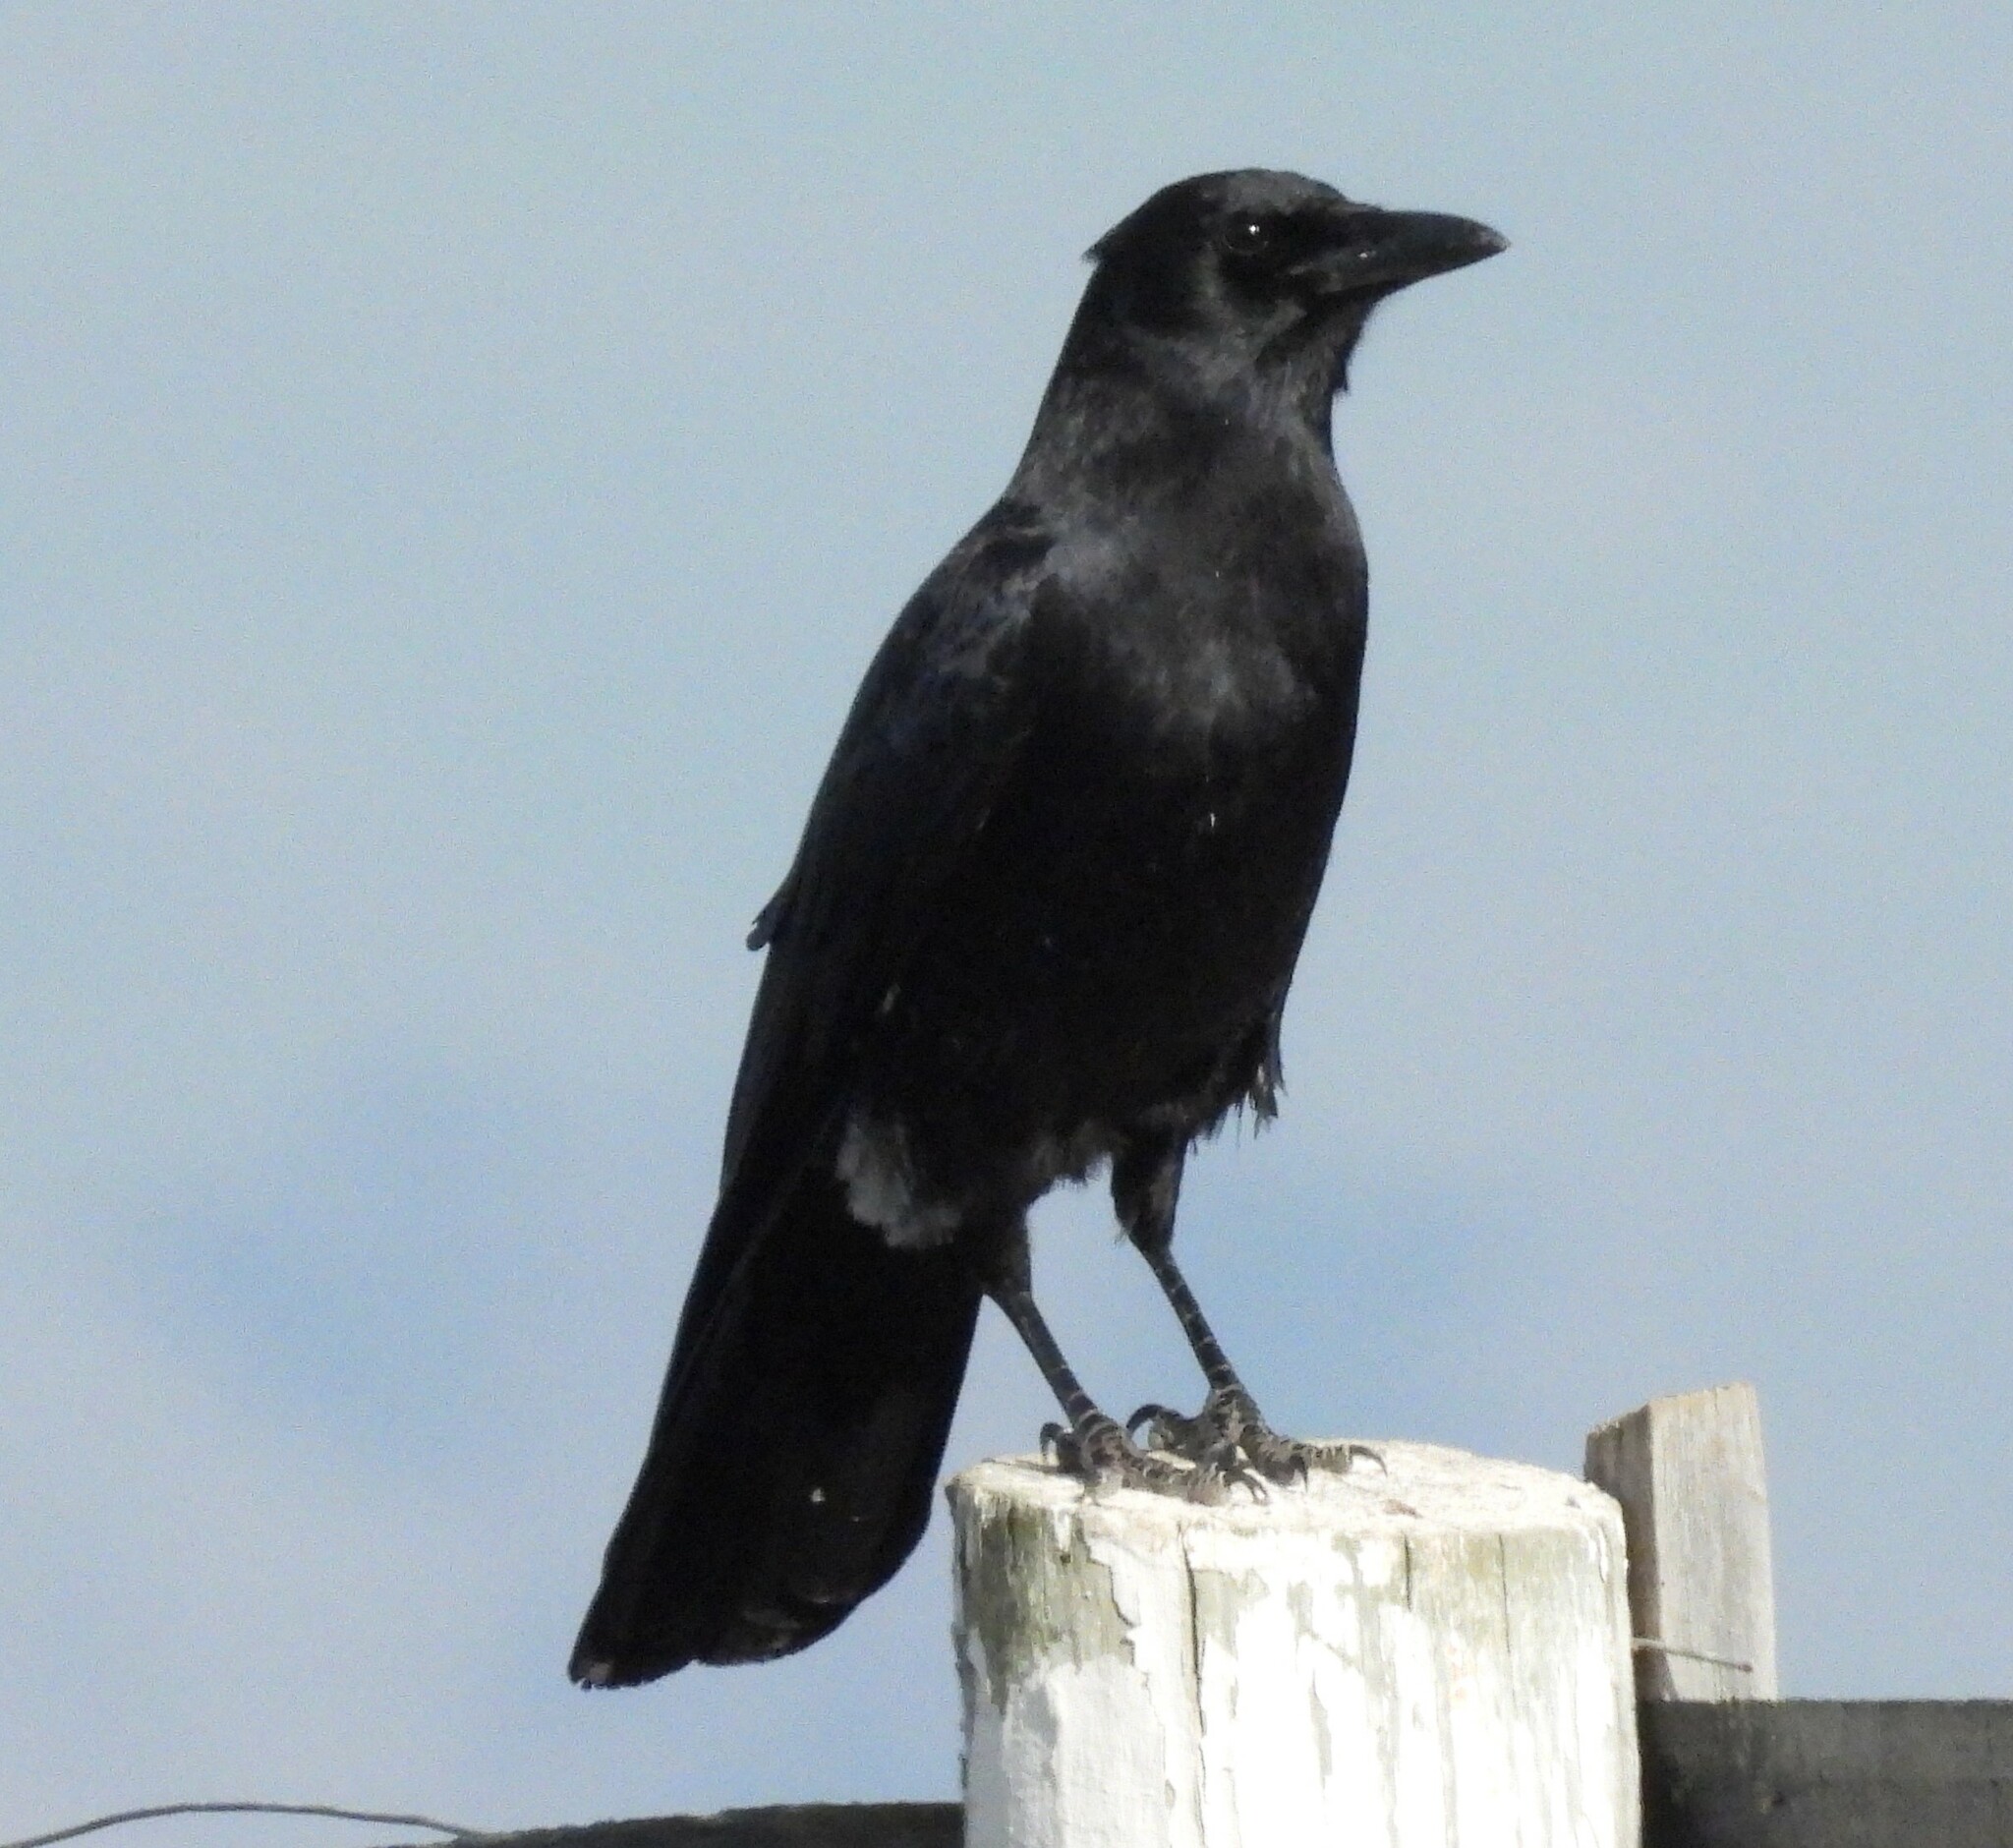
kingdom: Animalia
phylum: Chordata
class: Aves
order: Passeriformes
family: Corvidae
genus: Corvus
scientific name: Corvus brachyrhynchos
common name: American crow
